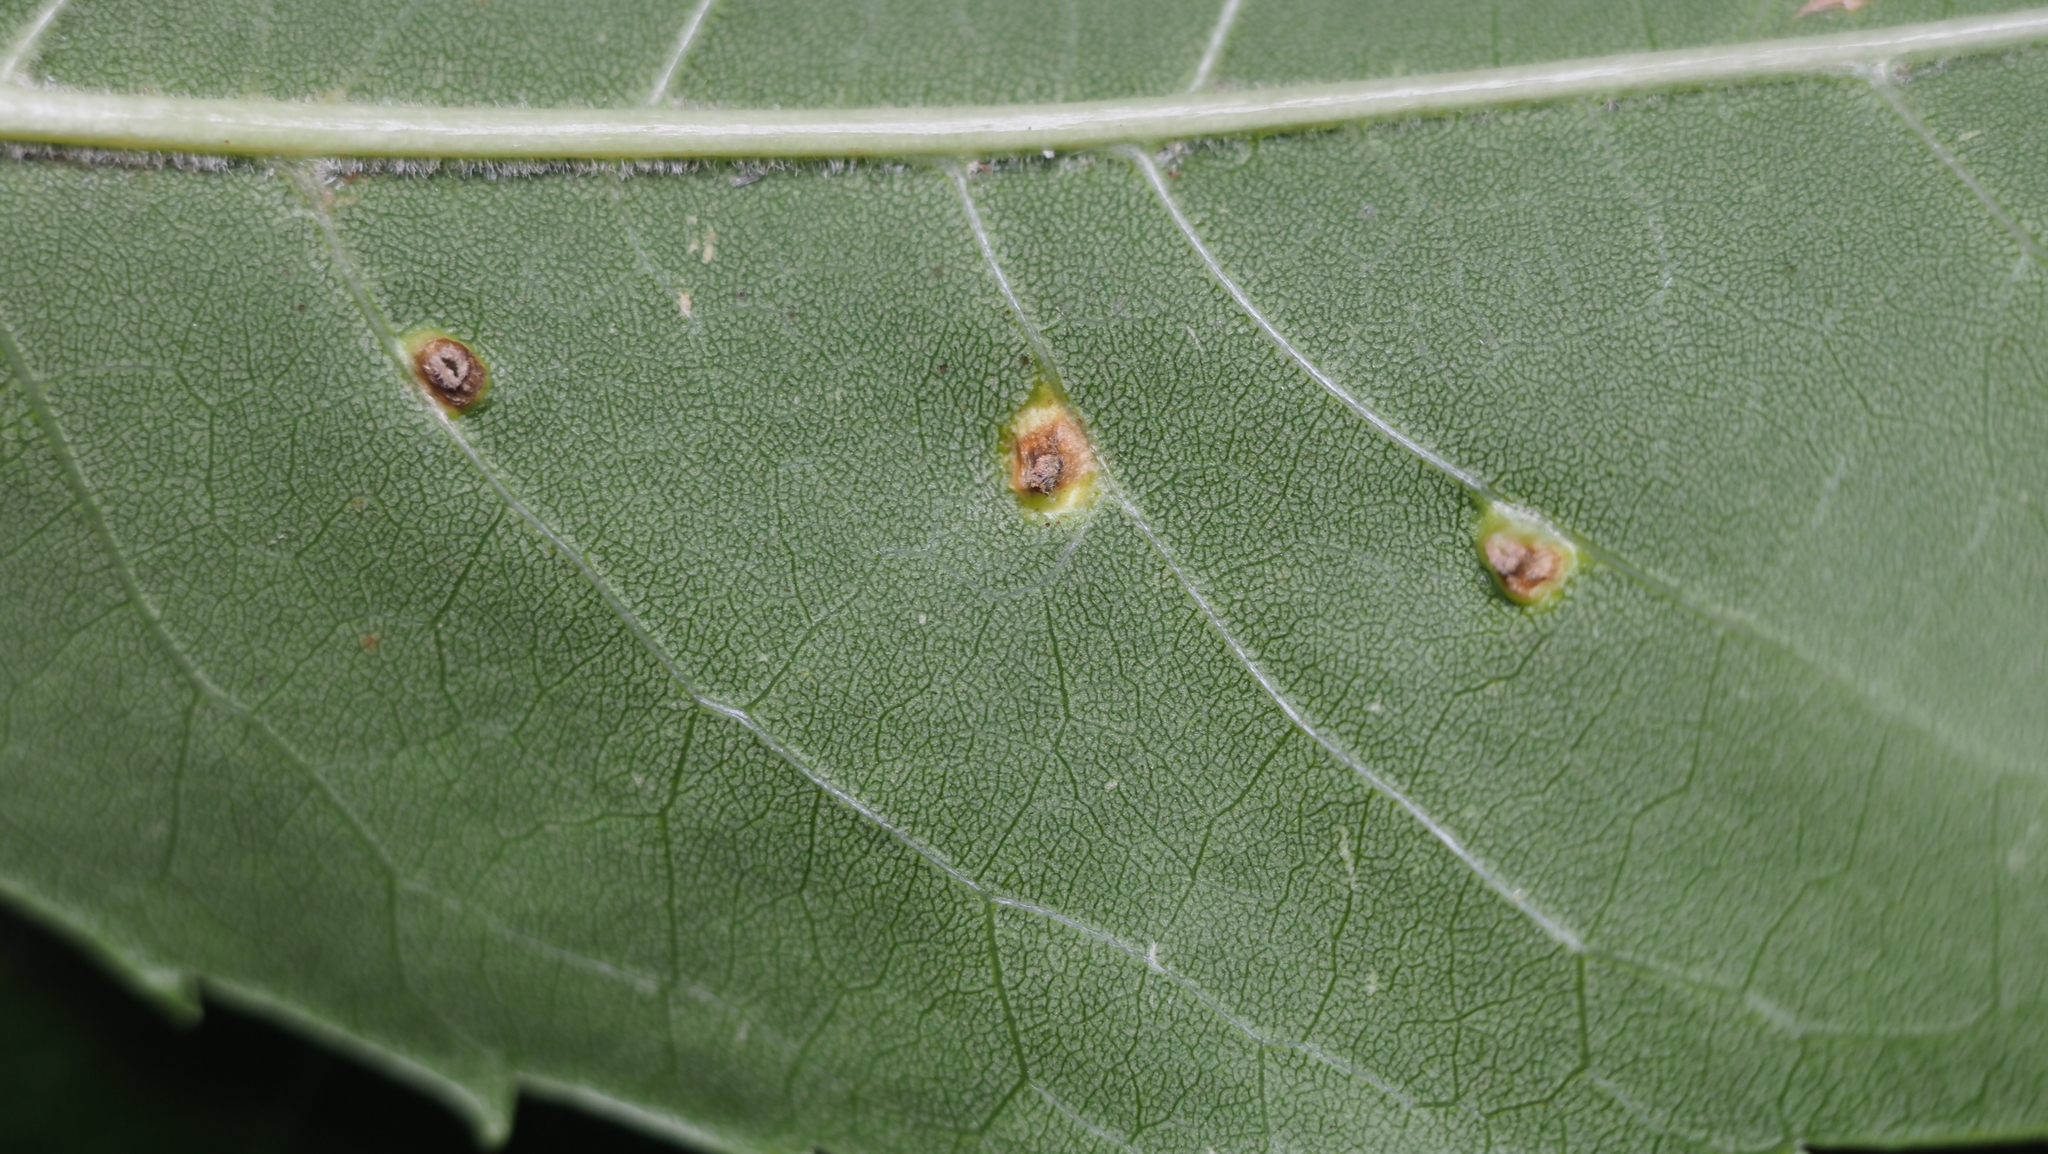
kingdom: Animalia
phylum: Arthropoda
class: Arachnida
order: Trombidiformes
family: Eriophyidae
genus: Aceria
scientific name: Aceria fraxinicola
